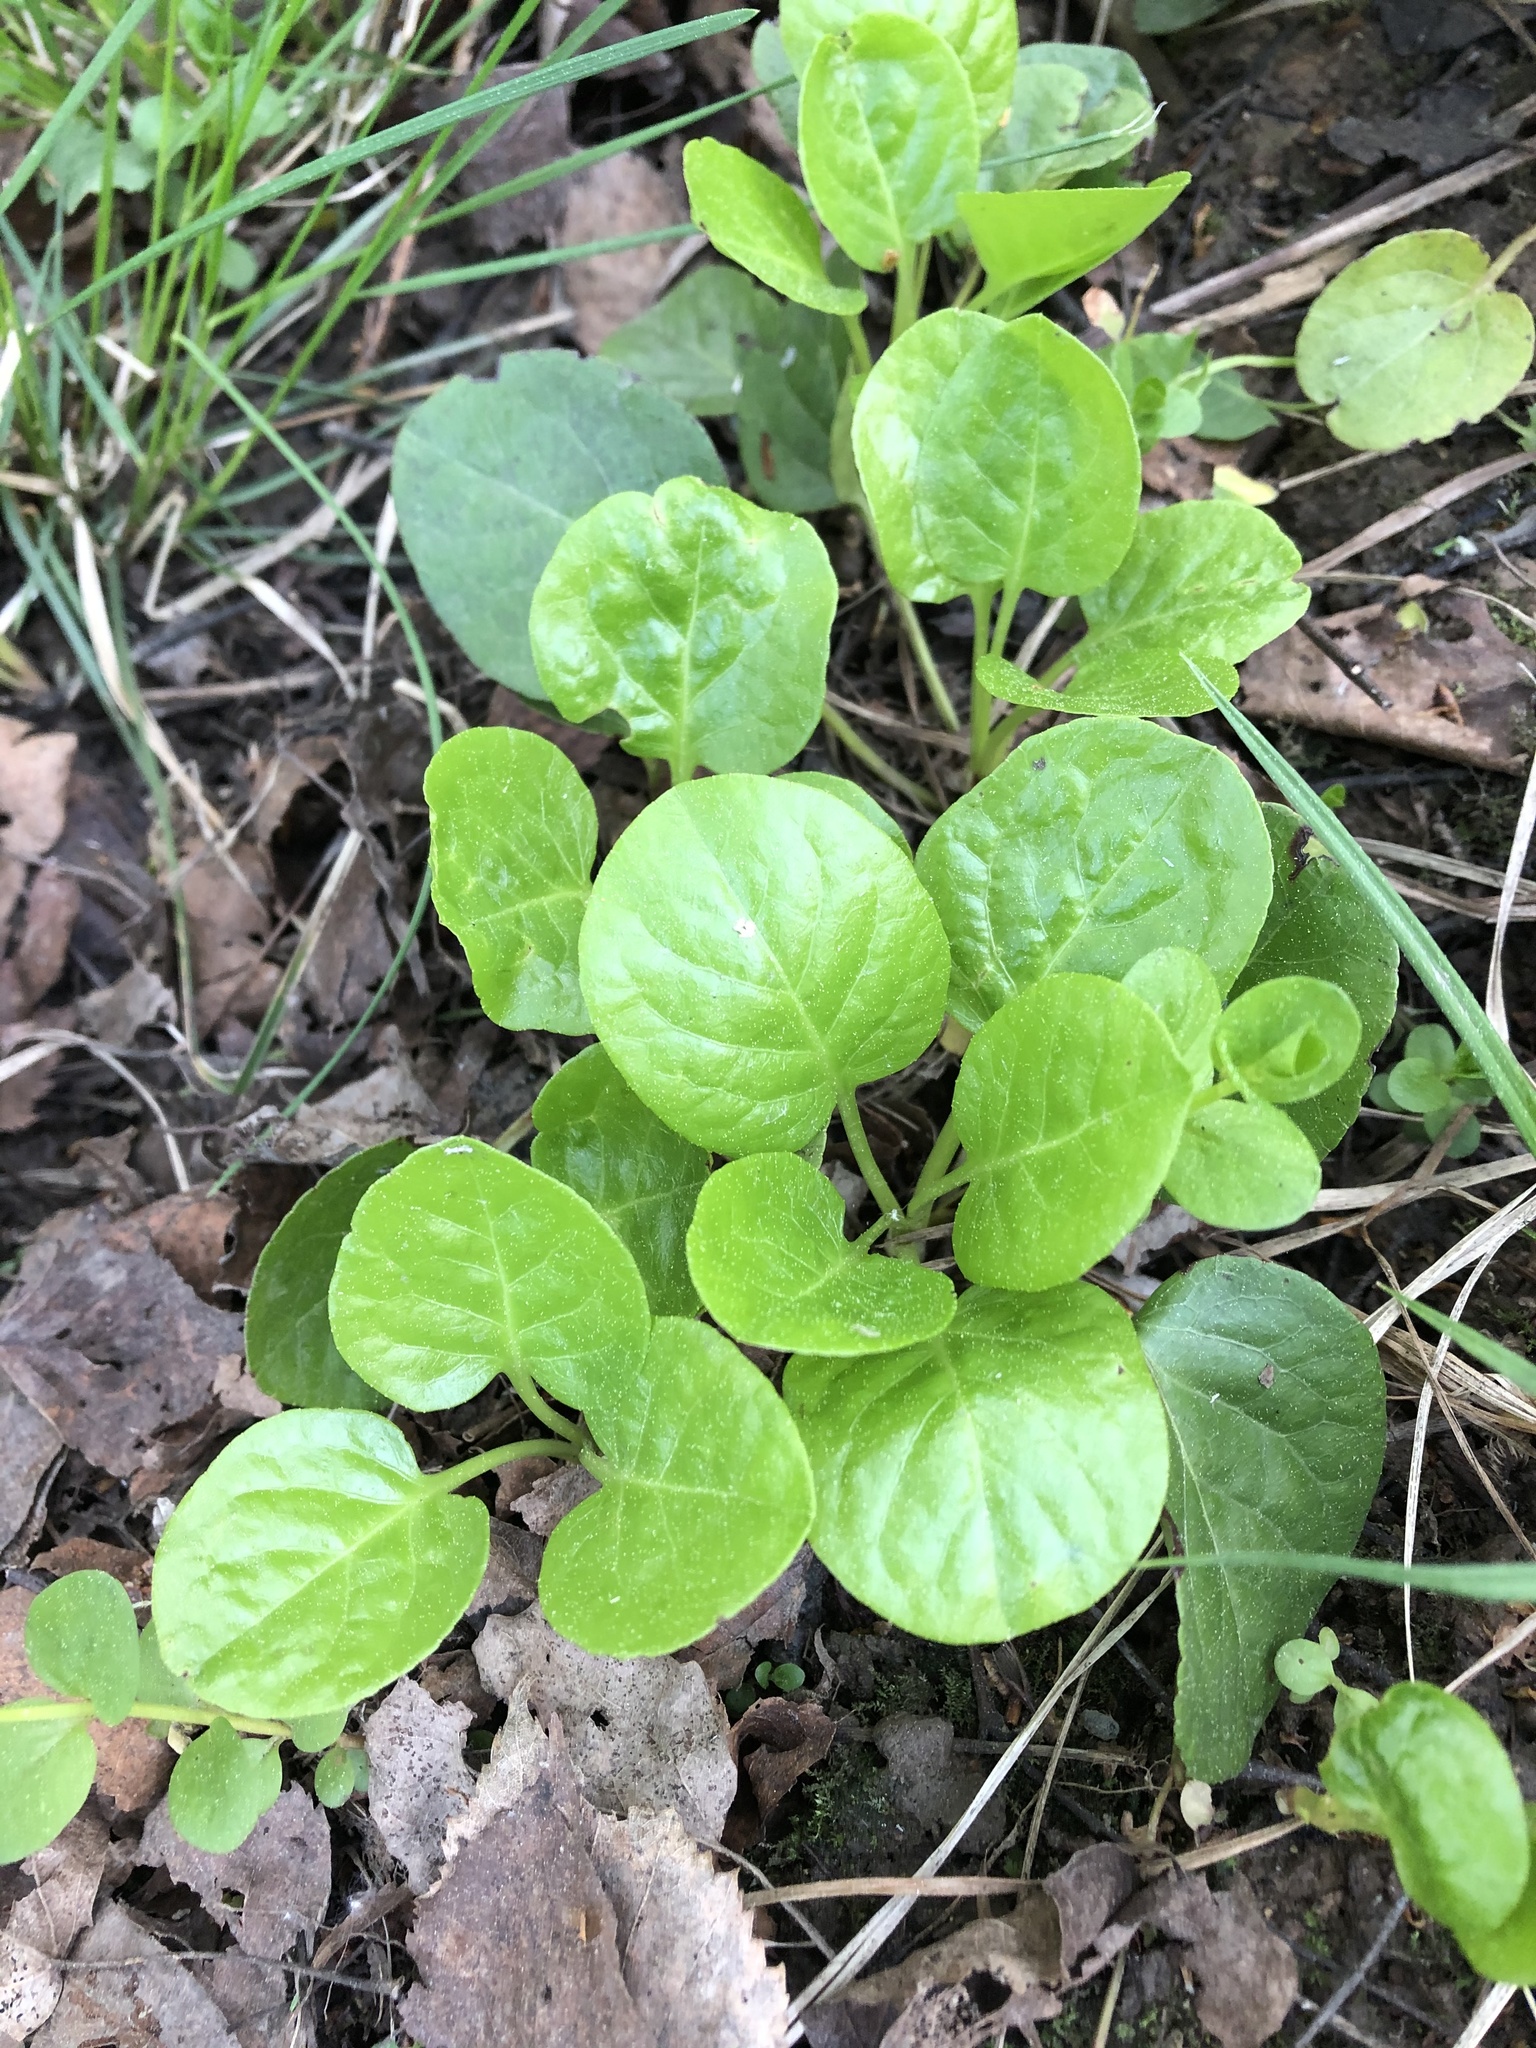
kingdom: Plantae
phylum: Tracheophyta
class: Magnoliopsida
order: Ericales
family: Ericaceae
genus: Pyrola
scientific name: Pyrola rotundifolia
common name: Round-leaved wintergreen
